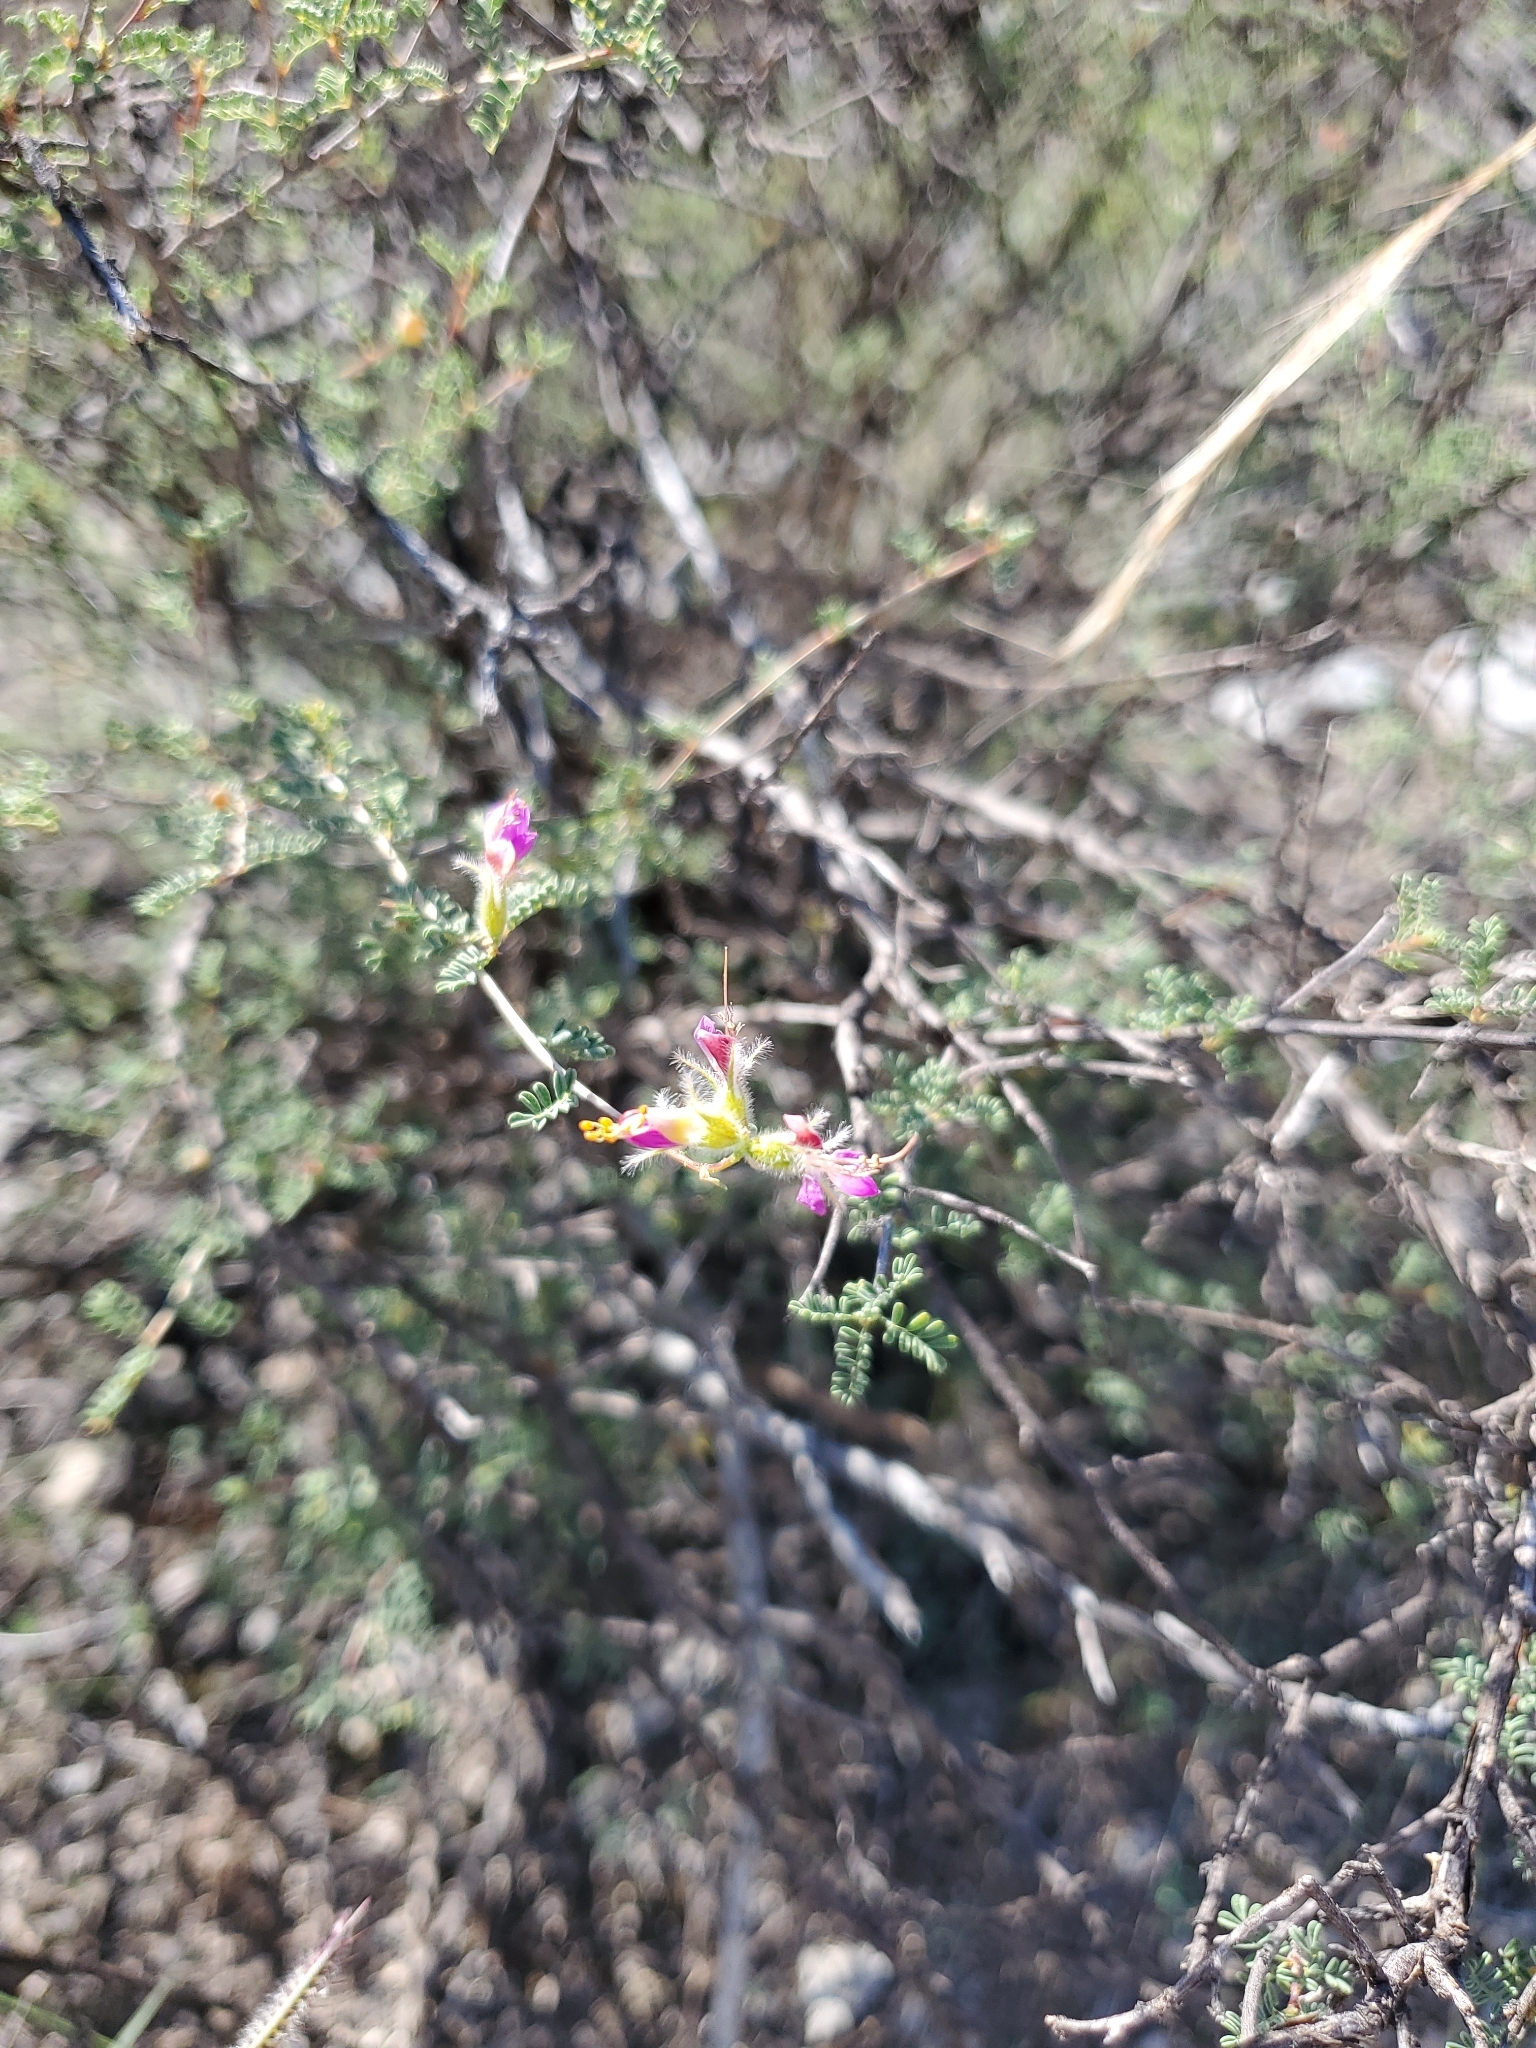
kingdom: Plantae
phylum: Tracheophyta
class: Magnoliopsida
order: Fabales
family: Fabaceae
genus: Dalea
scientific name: Dalea formosa
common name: Feather-plume dalea
